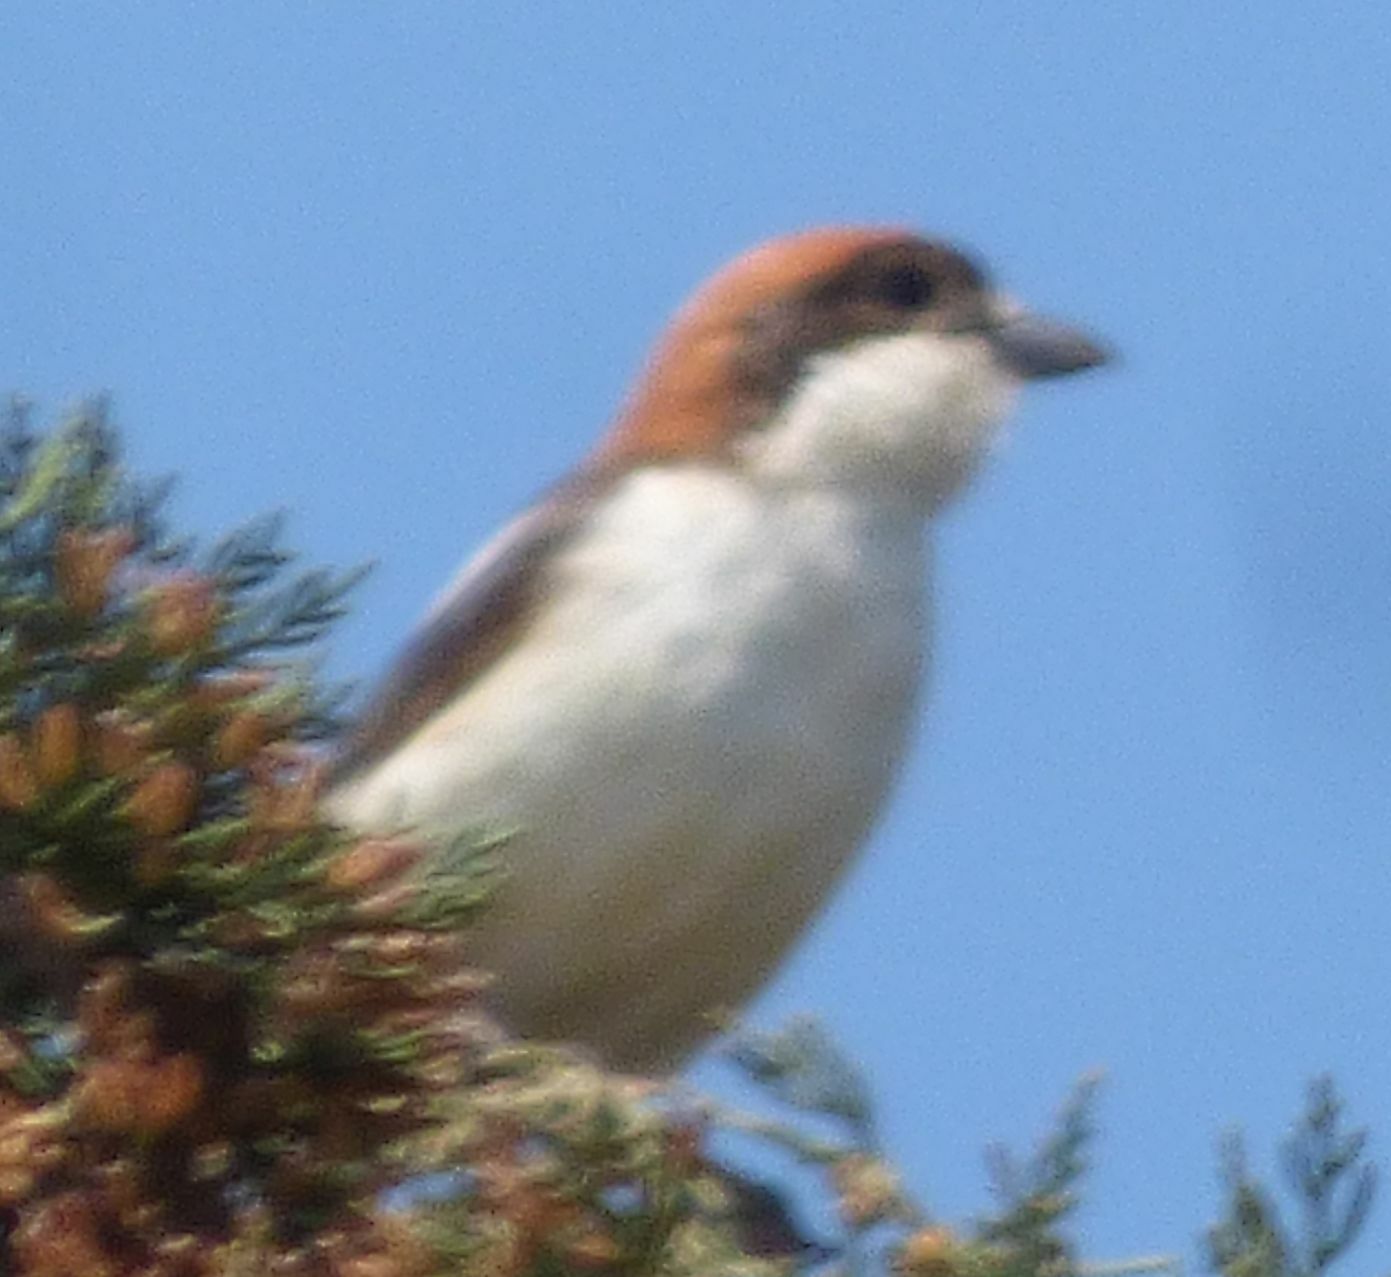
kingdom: Animalia
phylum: Chordata
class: Aves
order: Passeriformes
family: Laniidae
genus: Lanius
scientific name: Lanius senator
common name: Woodchat shrike
